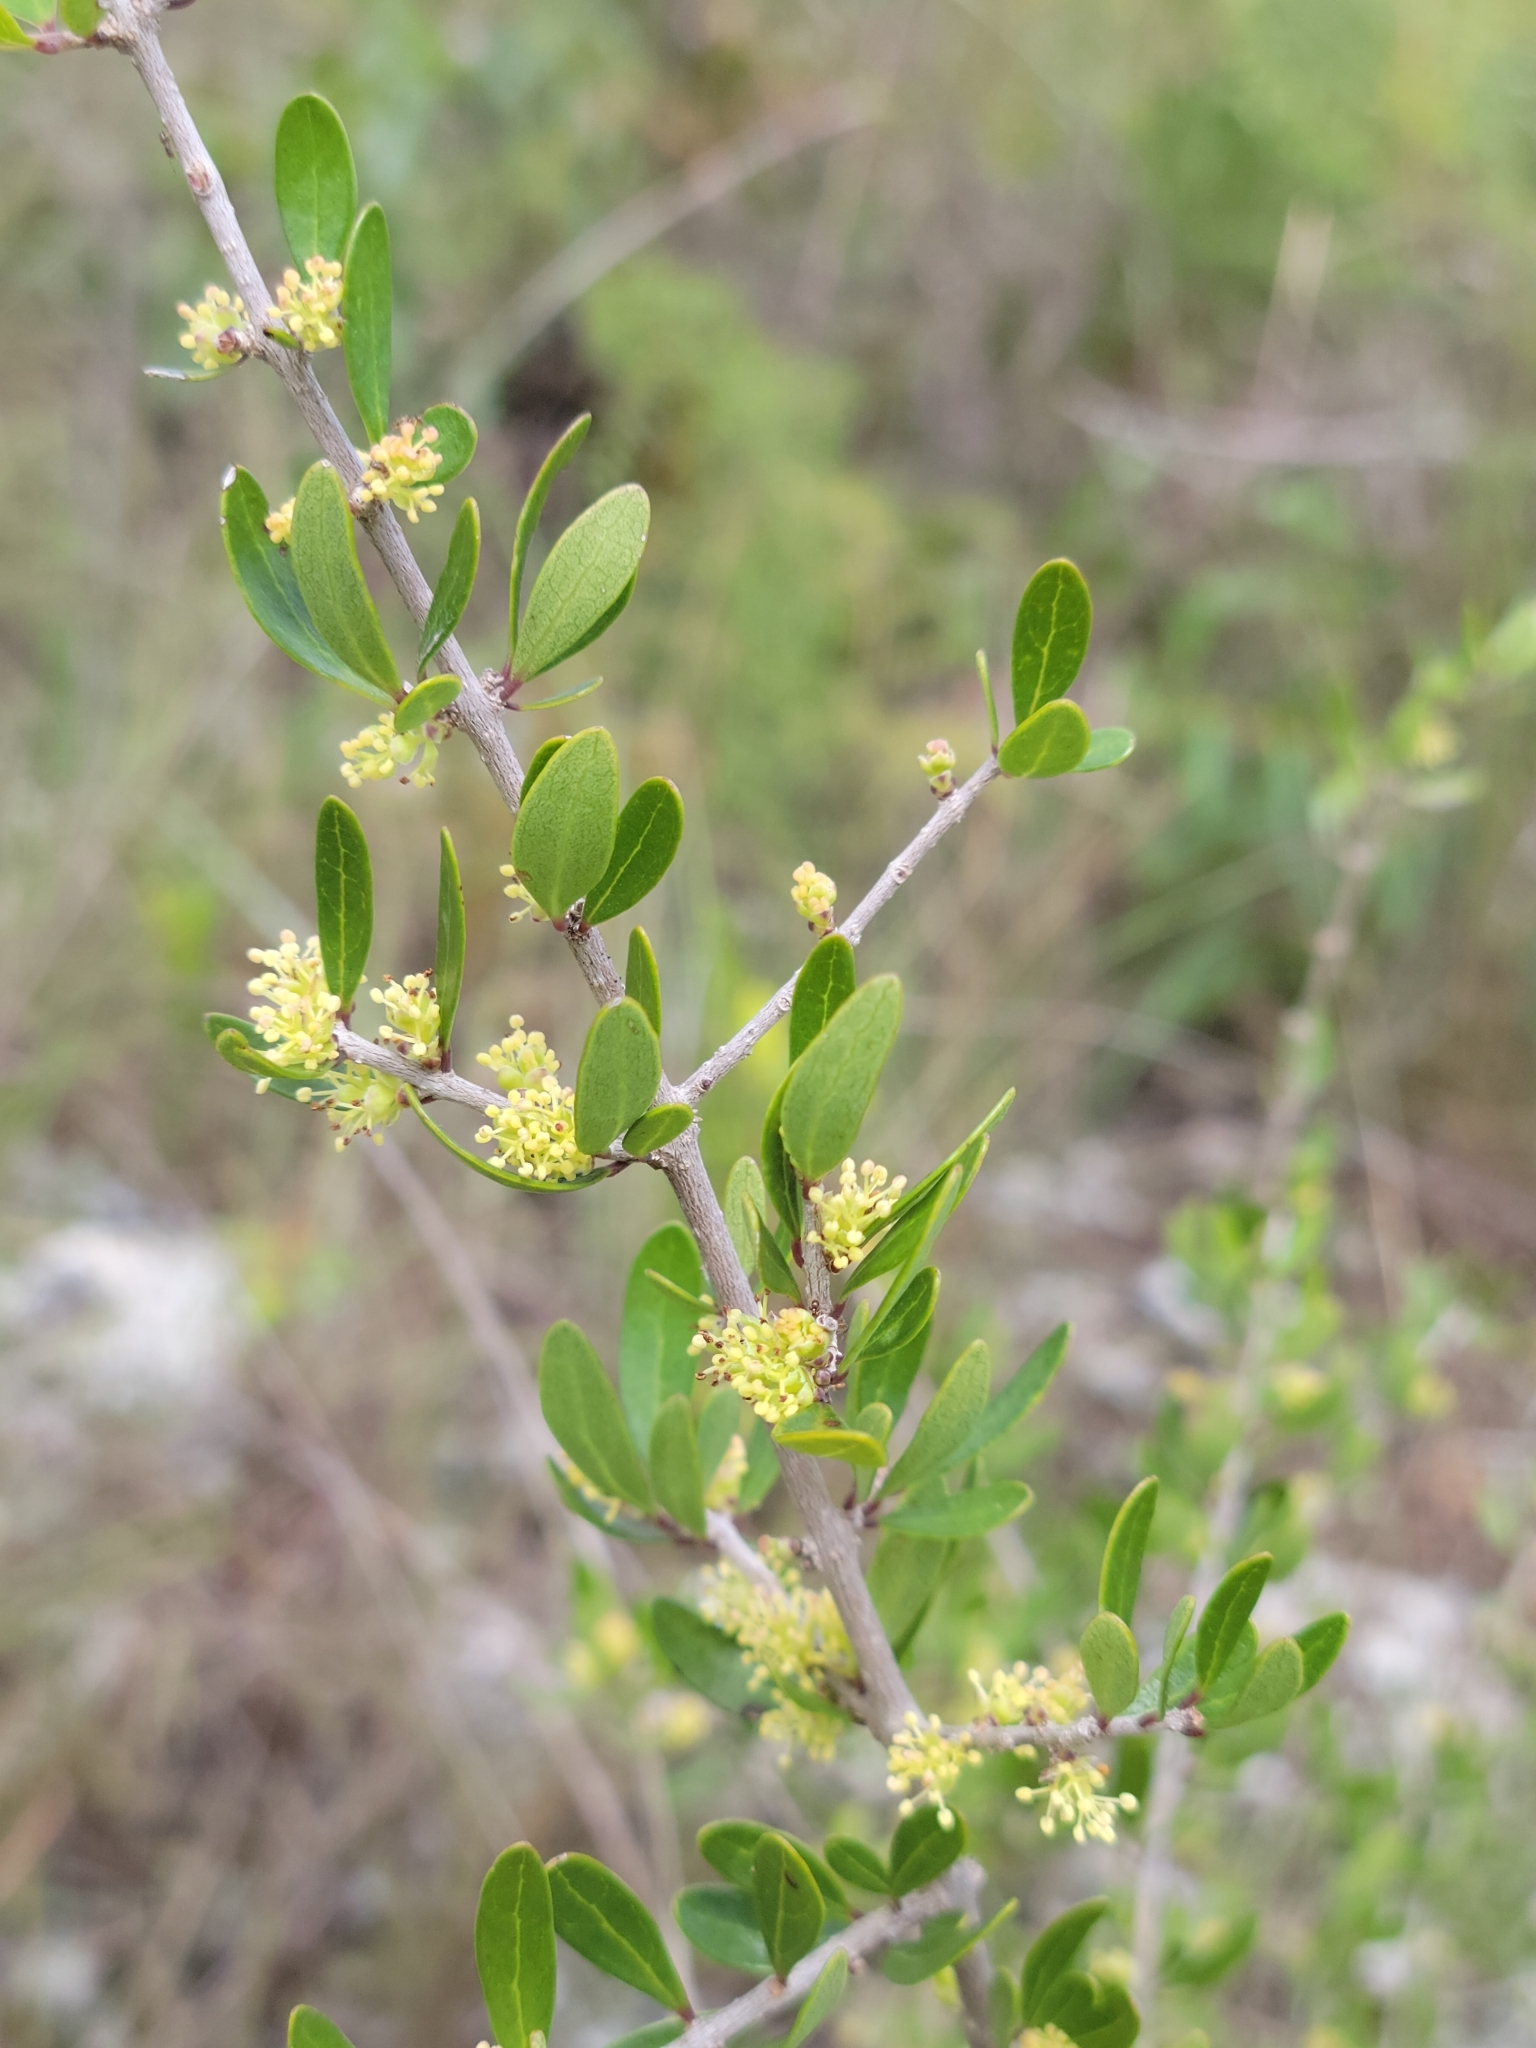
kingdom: Plantae
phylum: Tracheophyta
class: Magnoliopsida
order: Lamiales
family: Oleaceae
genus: Forestiera
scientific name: Forestiera segregata
